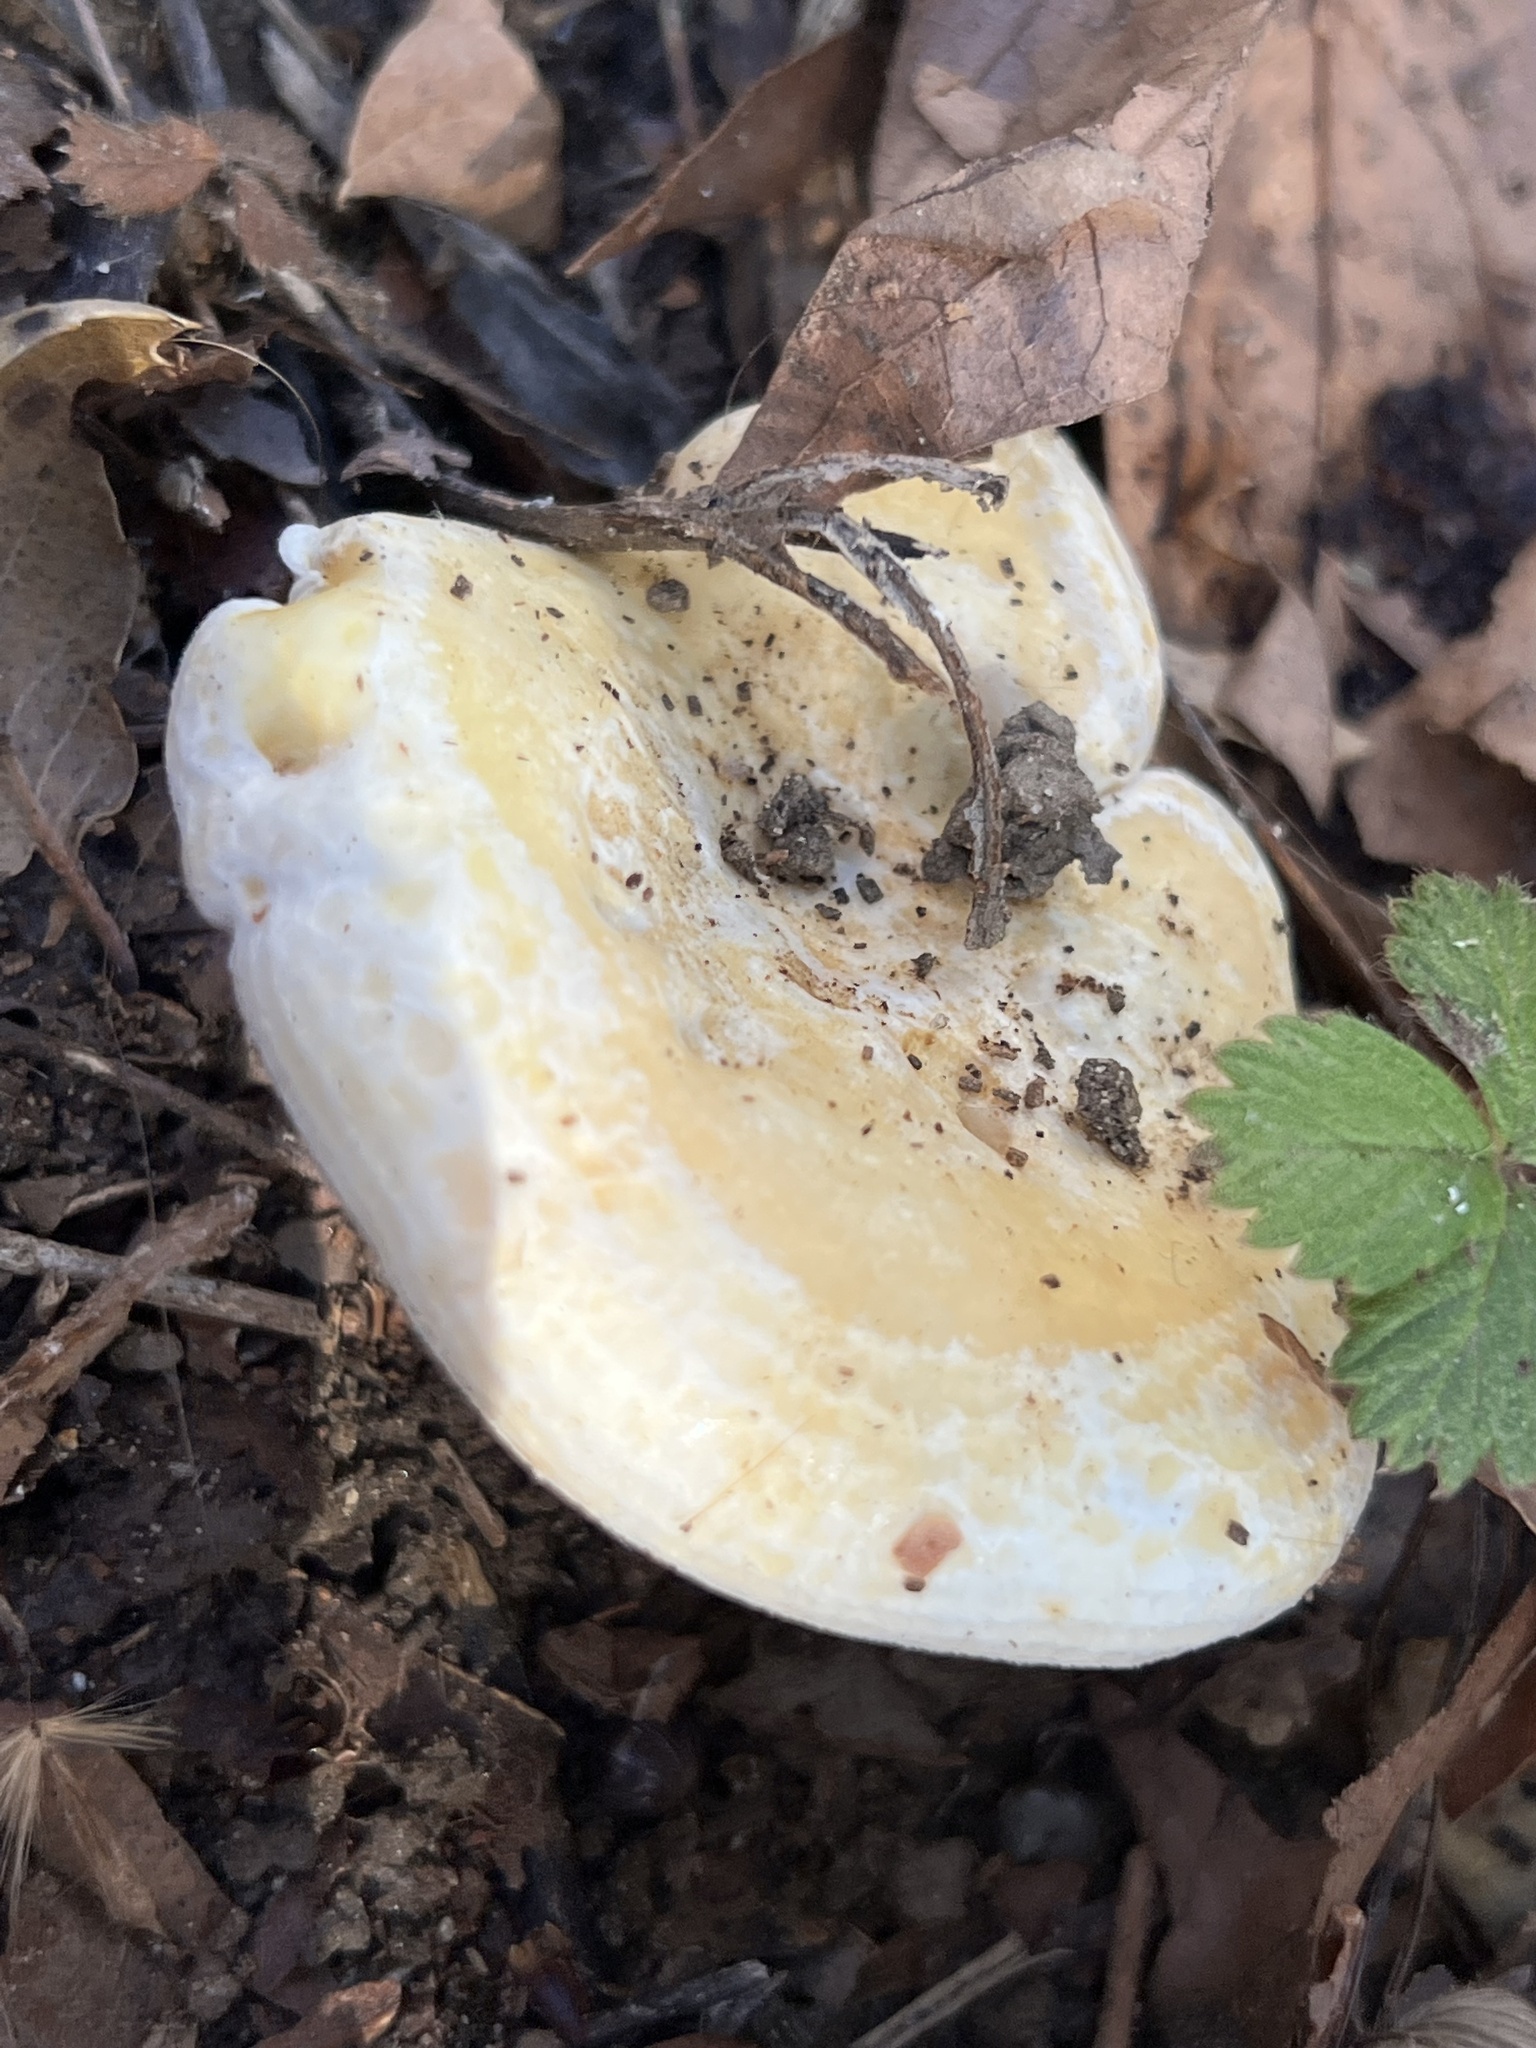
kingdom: Fungi
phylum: Basidiomycota
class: Agaricomycetes
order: Russulales
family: Russulaceae
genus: Lactarius
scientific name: Lactarius alnicola
